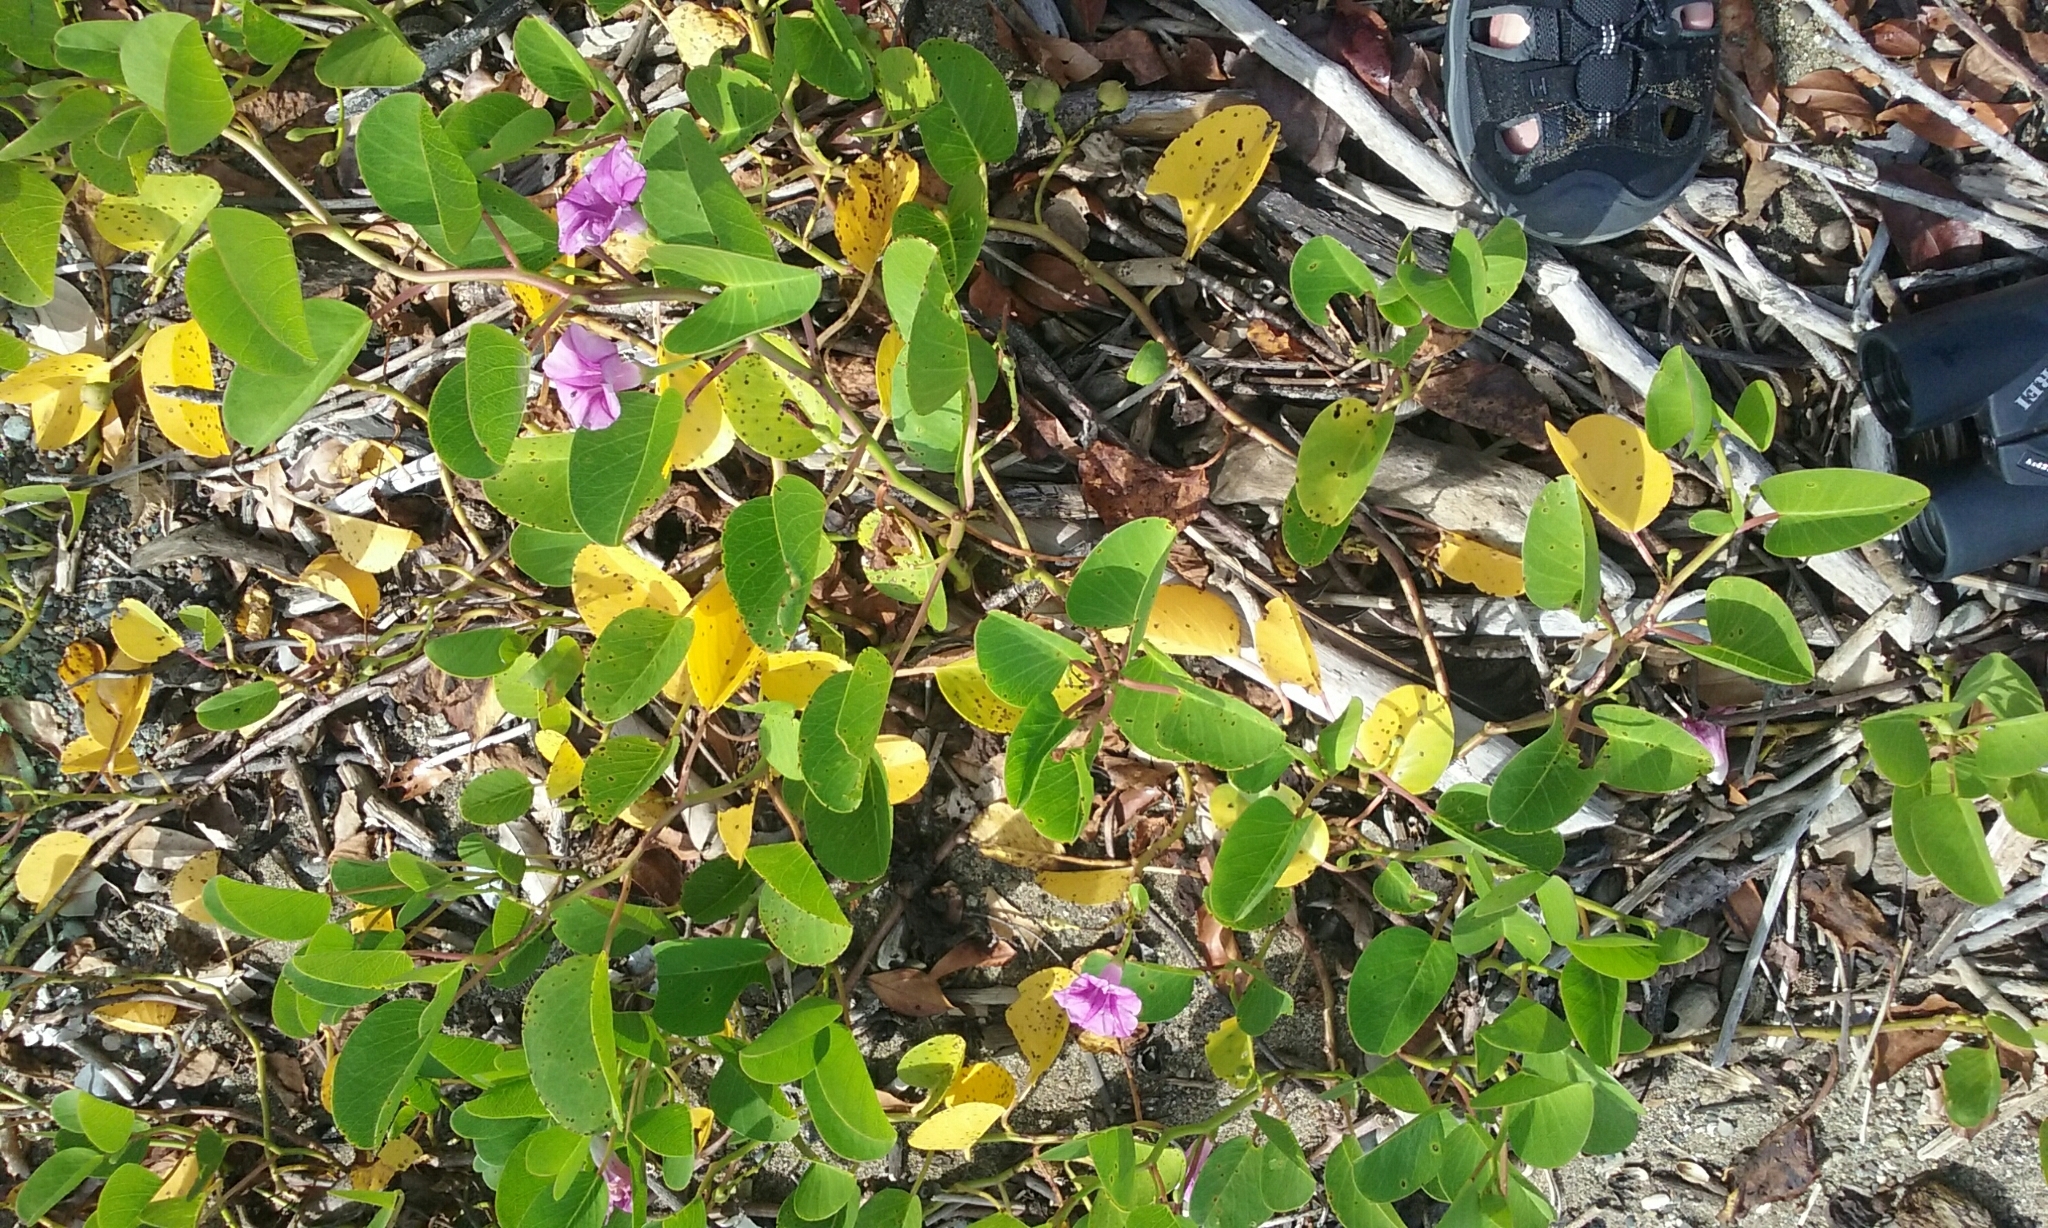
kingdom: Plantae
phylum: Tracheophyta
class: Magnoliopsida
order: Solanales
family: Convolvulaceae
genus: Ipomoea
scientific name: Ipomoea pes-caprae
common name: Beach morning glory
